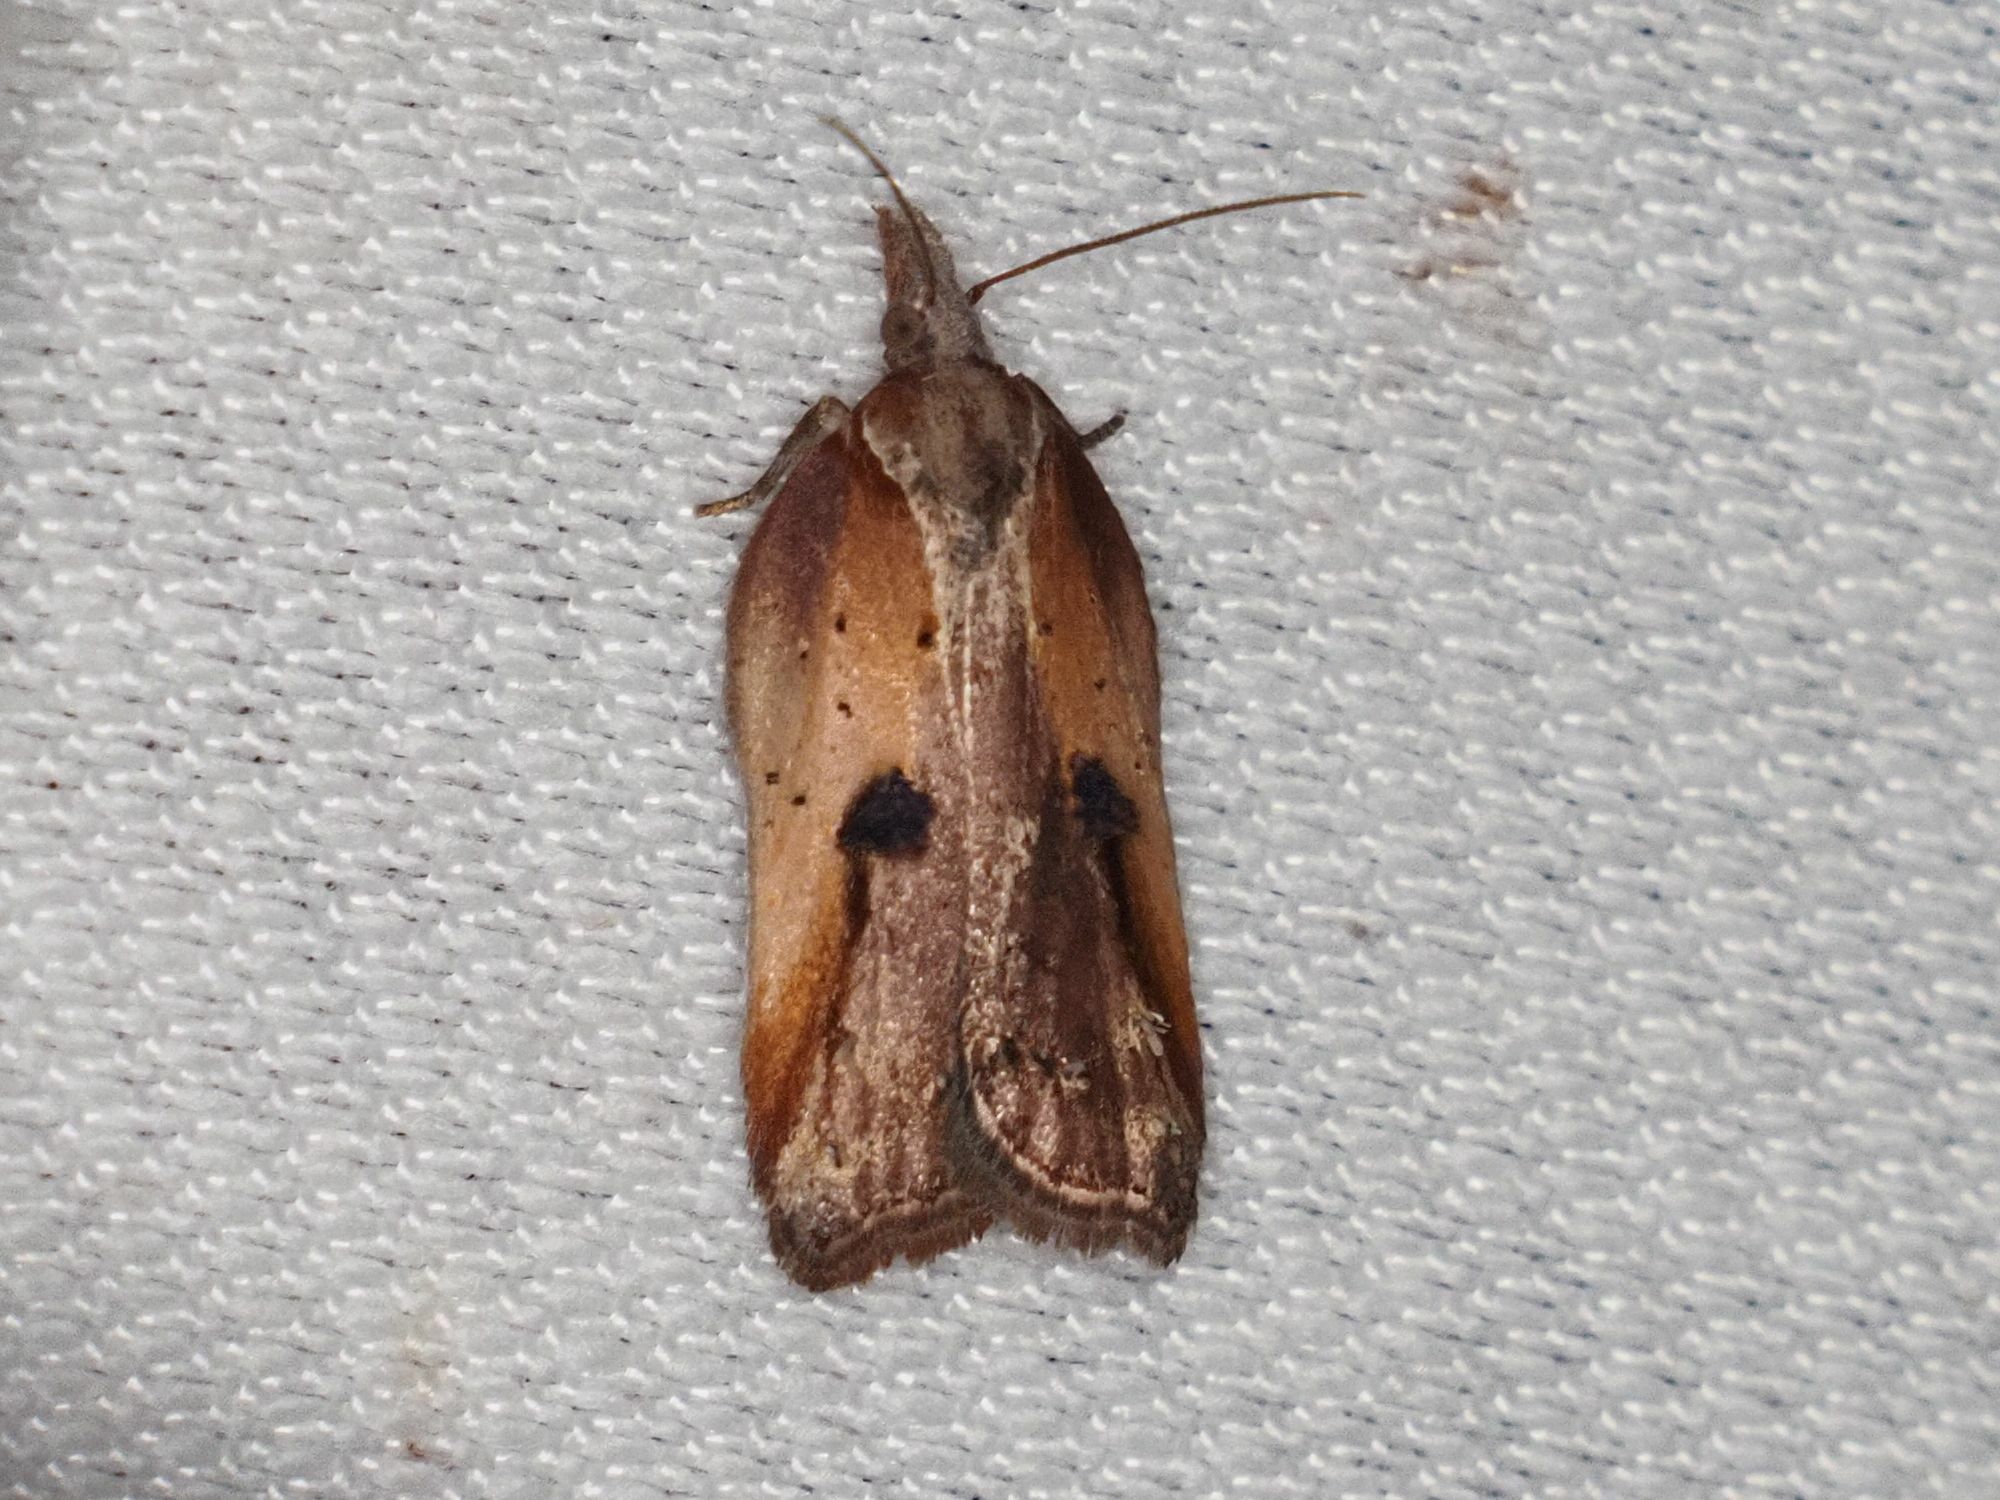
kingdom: Animalia
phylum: Arthropoda
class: Insecta
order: Lepidoptera
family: Tortricidae
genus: Acleris
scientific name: Acleris cristana
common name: Tufted button
